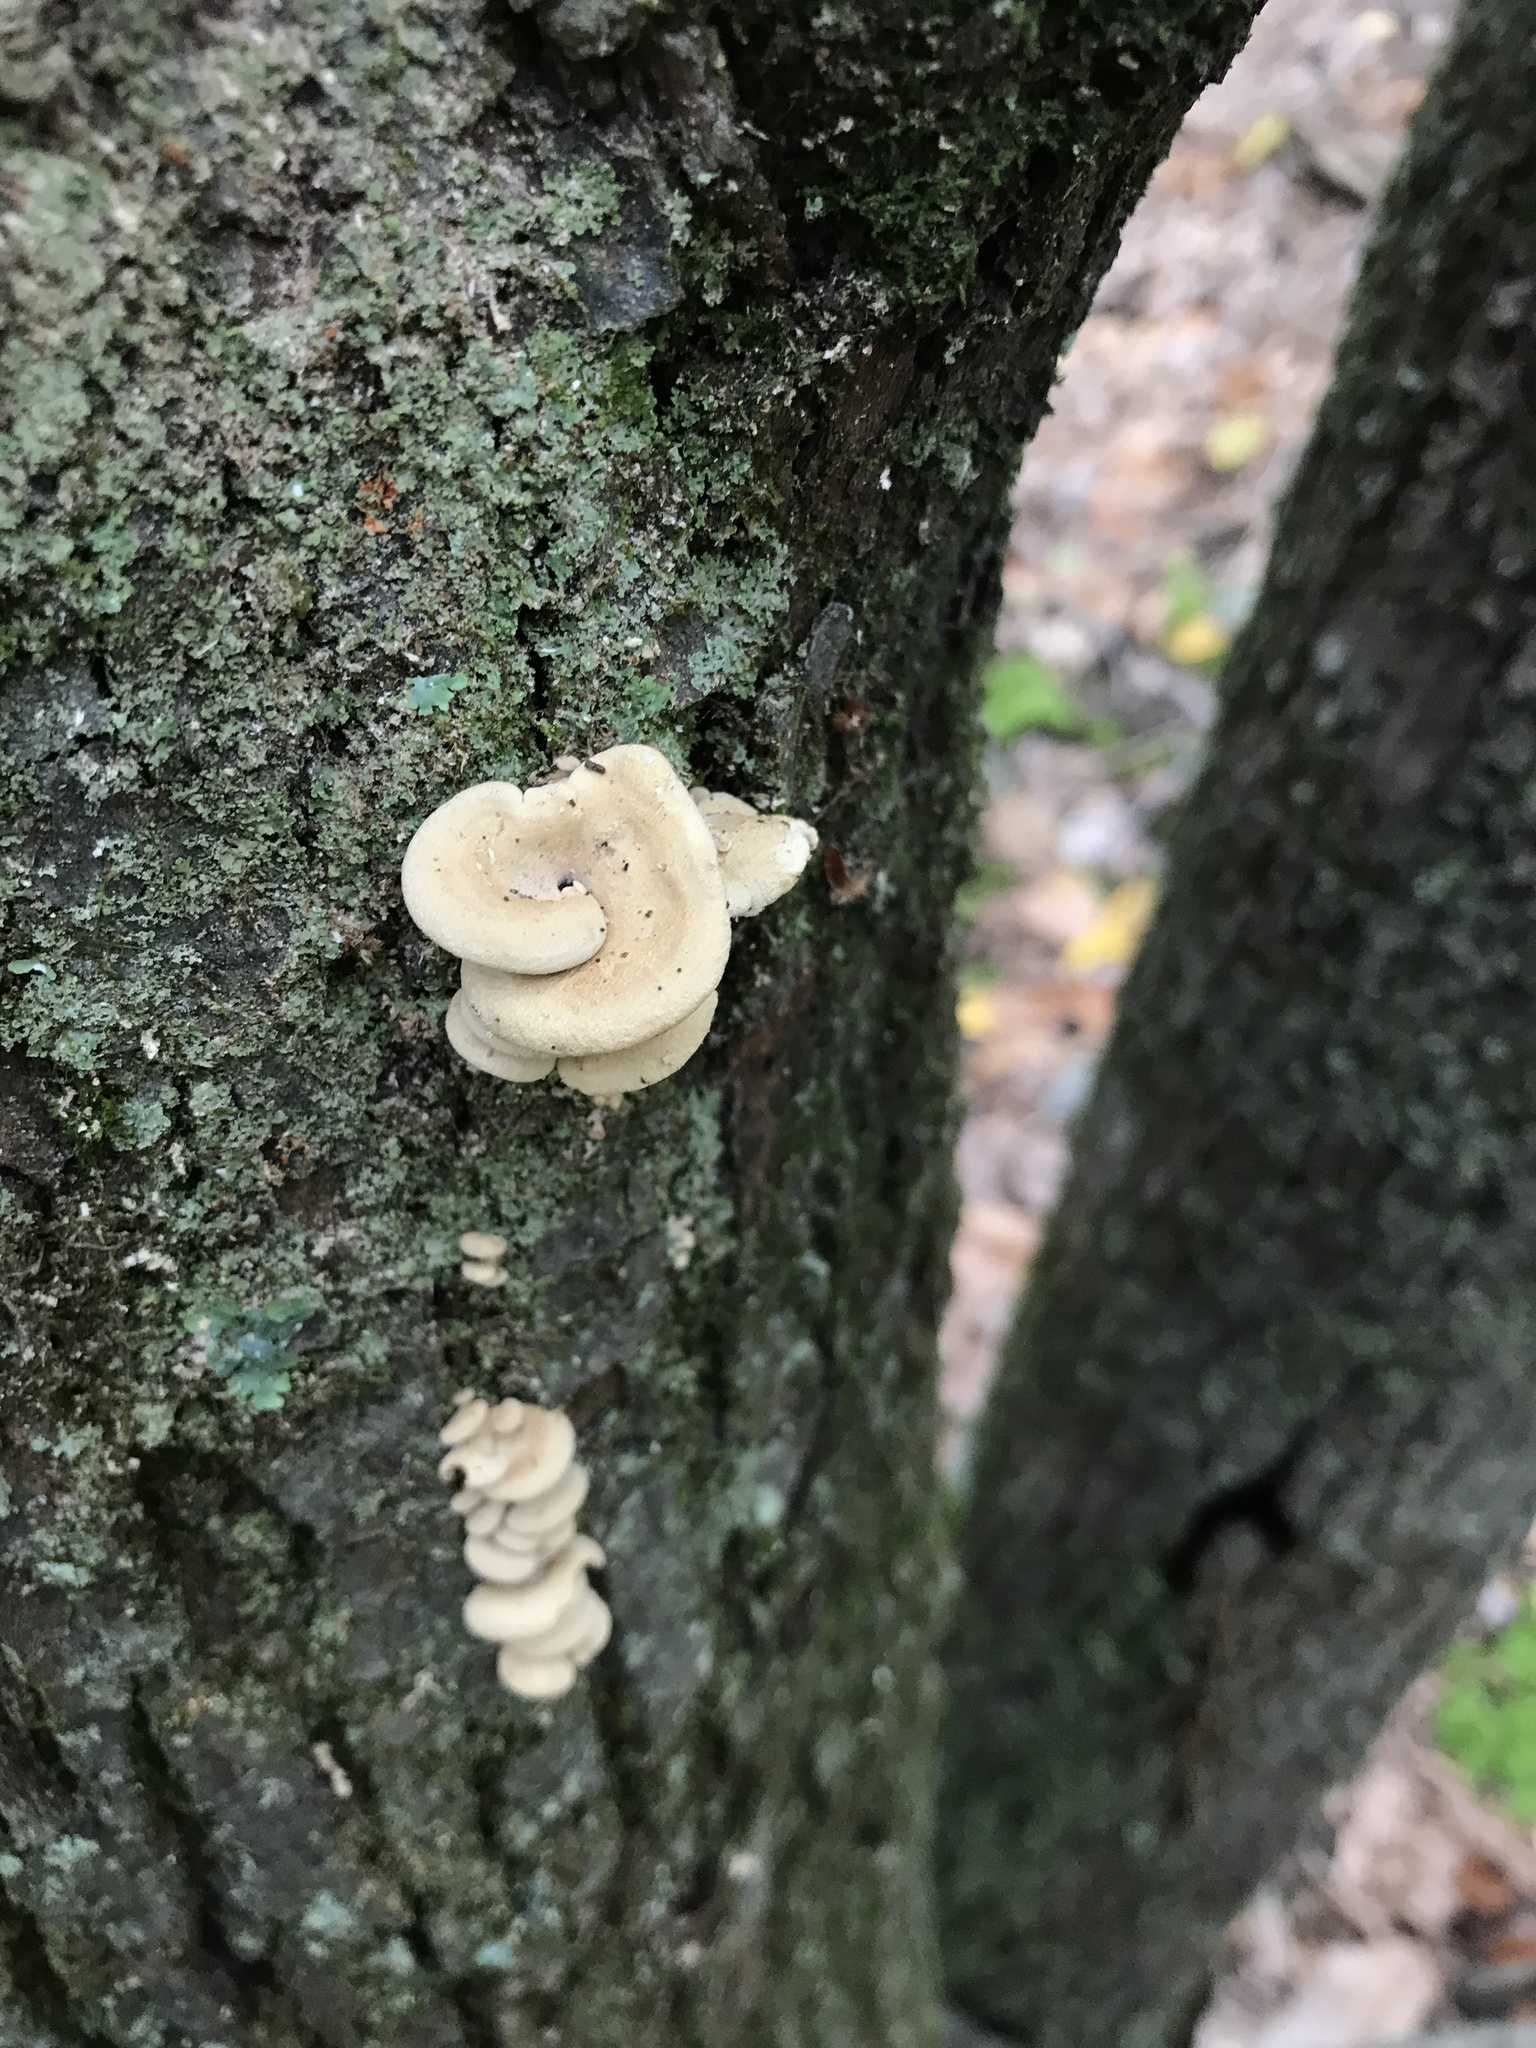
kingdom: Fungi
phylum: Basidiomycota
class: Agaricomycetes
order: Agaricales
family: Mycenaceae
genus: Panellus
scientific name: Panellus stipticus
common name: Bitter oysterling
